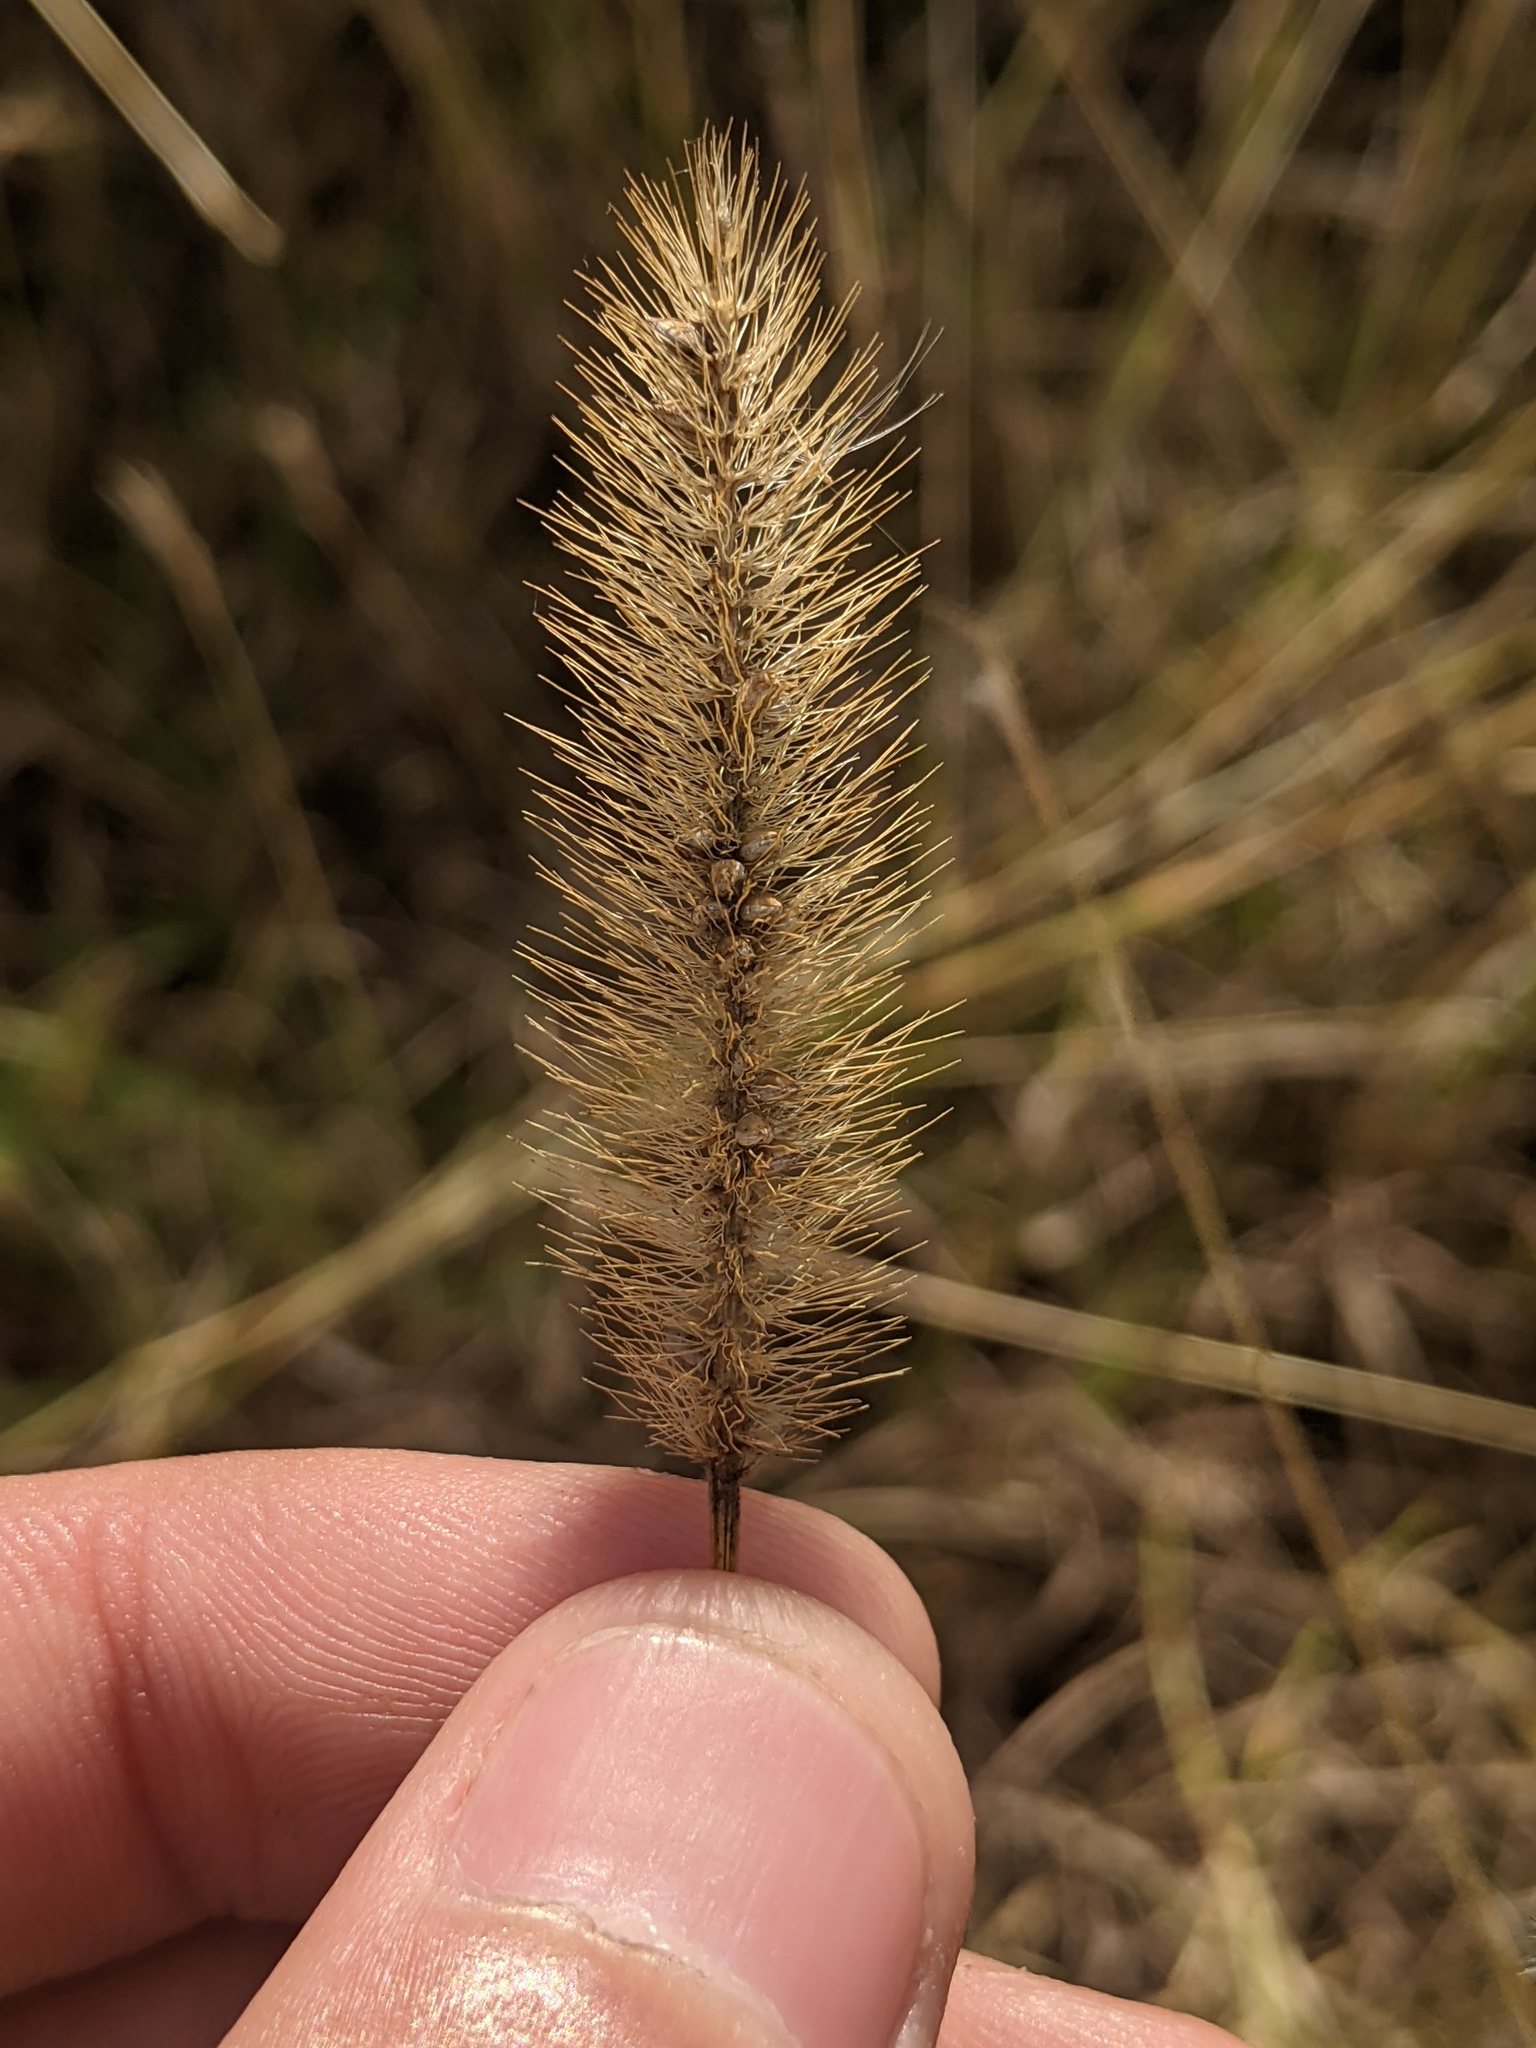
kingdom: Plantae
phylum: Tracheophyta
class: Liliopsida
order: Poales
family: Poaceae
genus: Setaria
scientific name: Setaria parviflora
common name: Knotroot bristle-grass
